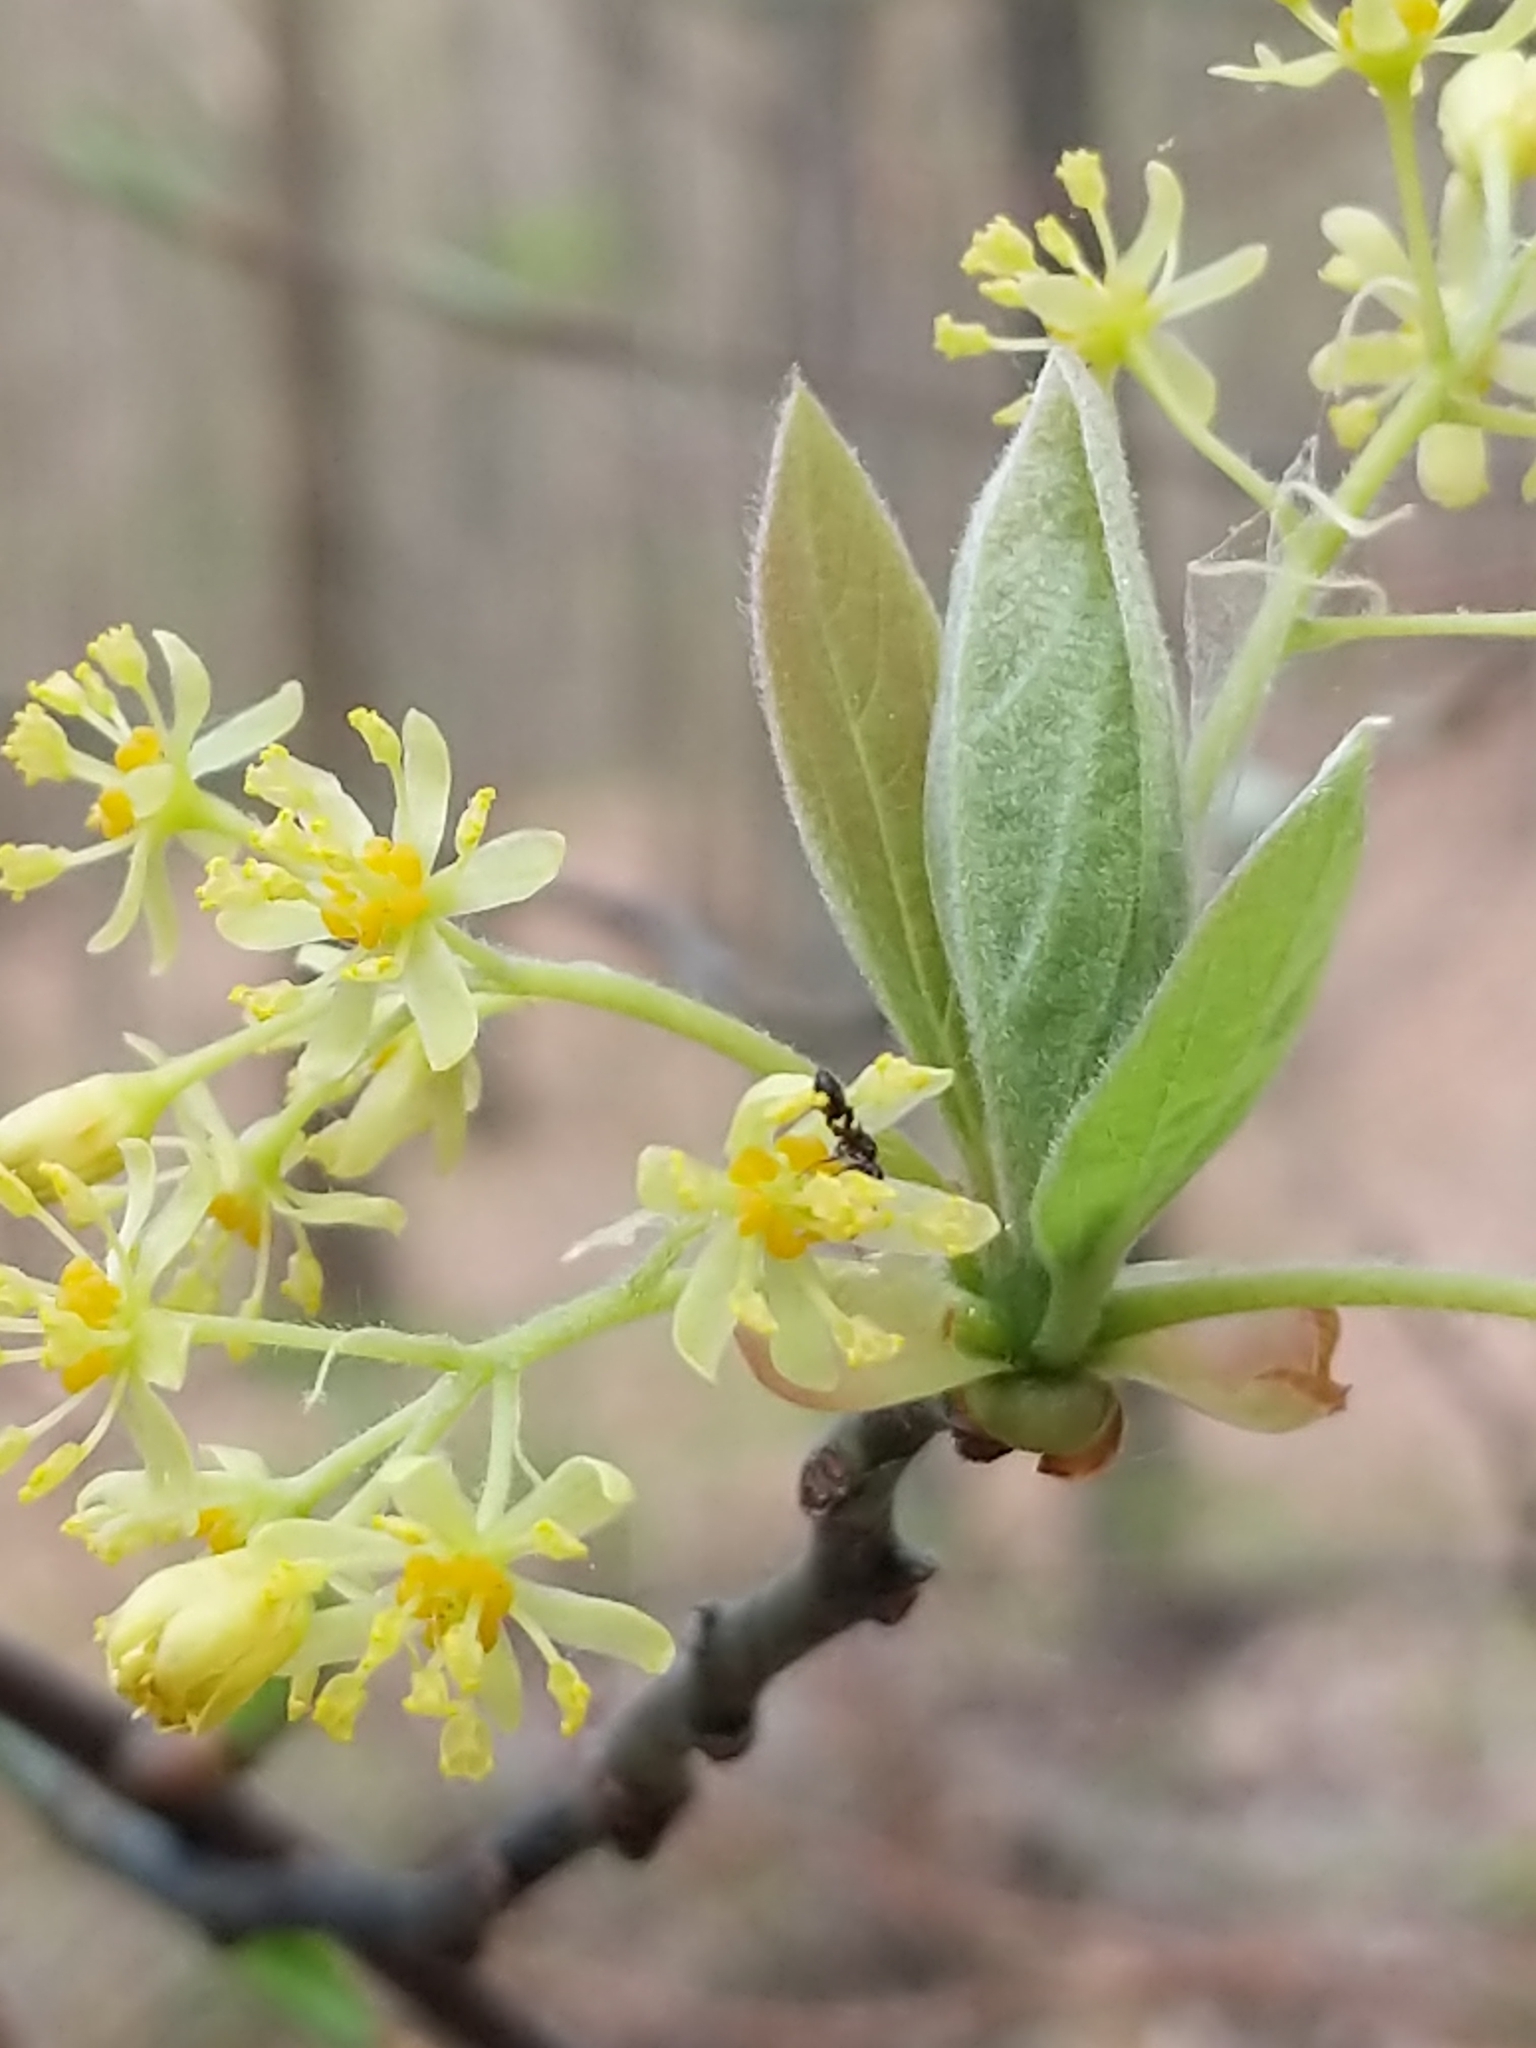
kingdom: Plantae
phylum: Tracheophyta
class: Magnoliopsida
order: Laurales
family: Lauraceae
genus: Sassafras
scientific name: Sassafras albidum
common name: Sassafras
